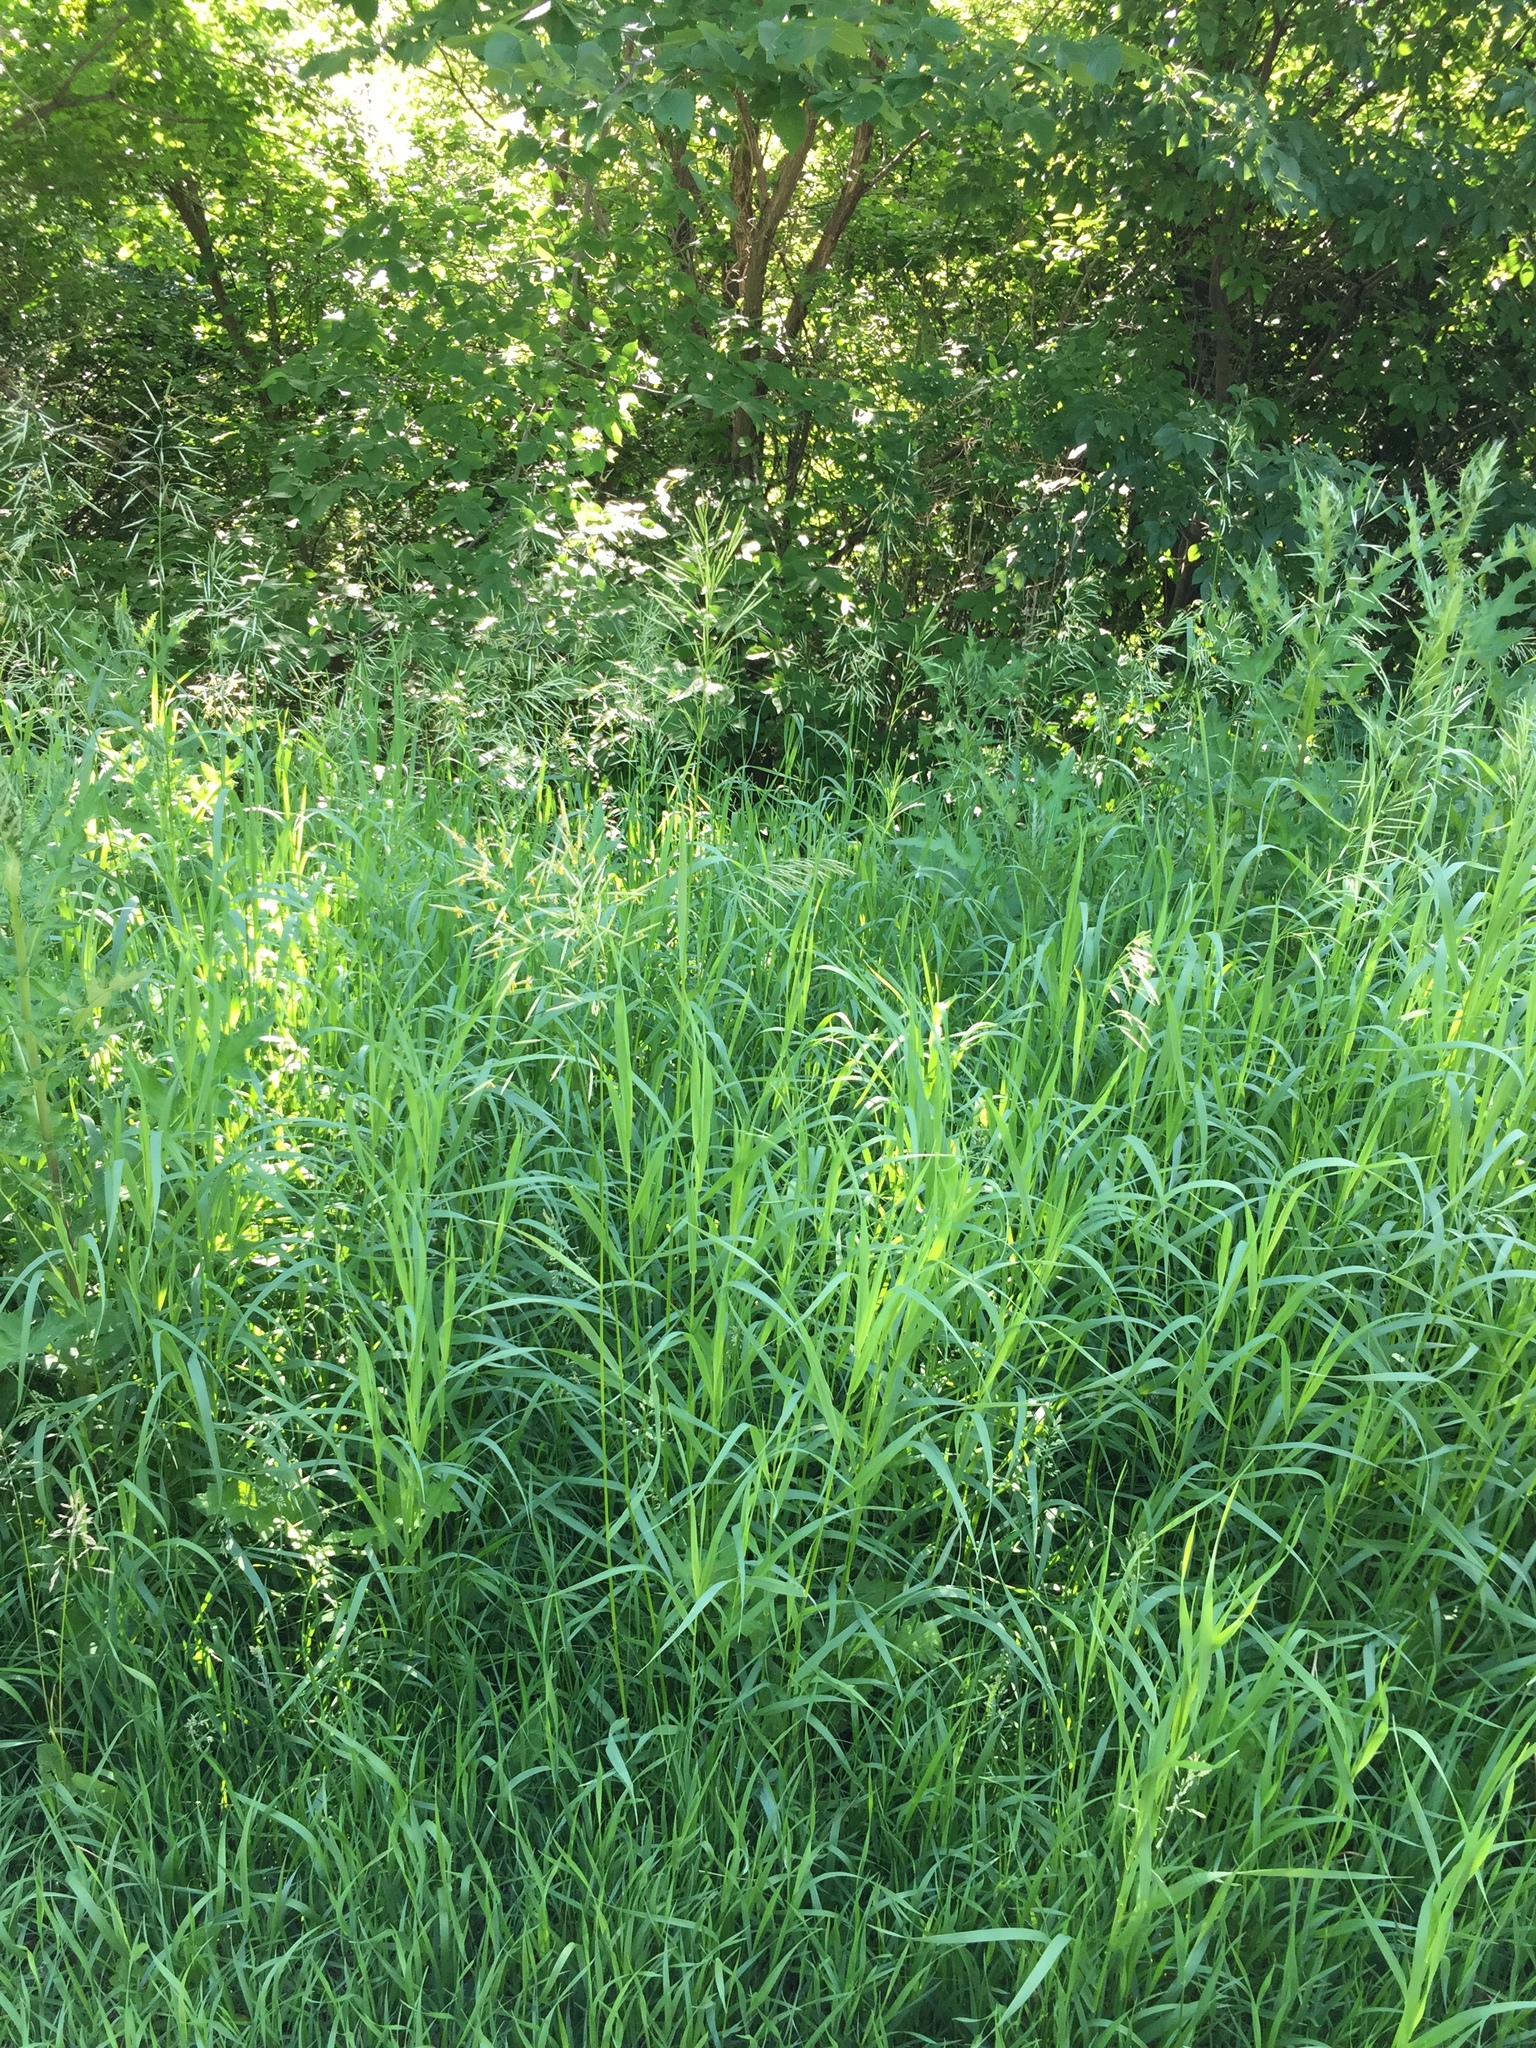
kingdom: Plantae
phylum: Tracheophyta
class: Liliopsida
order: Poales
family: Poaceae
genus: Bromus
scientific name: Bromus inermis
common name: Smooth brome
